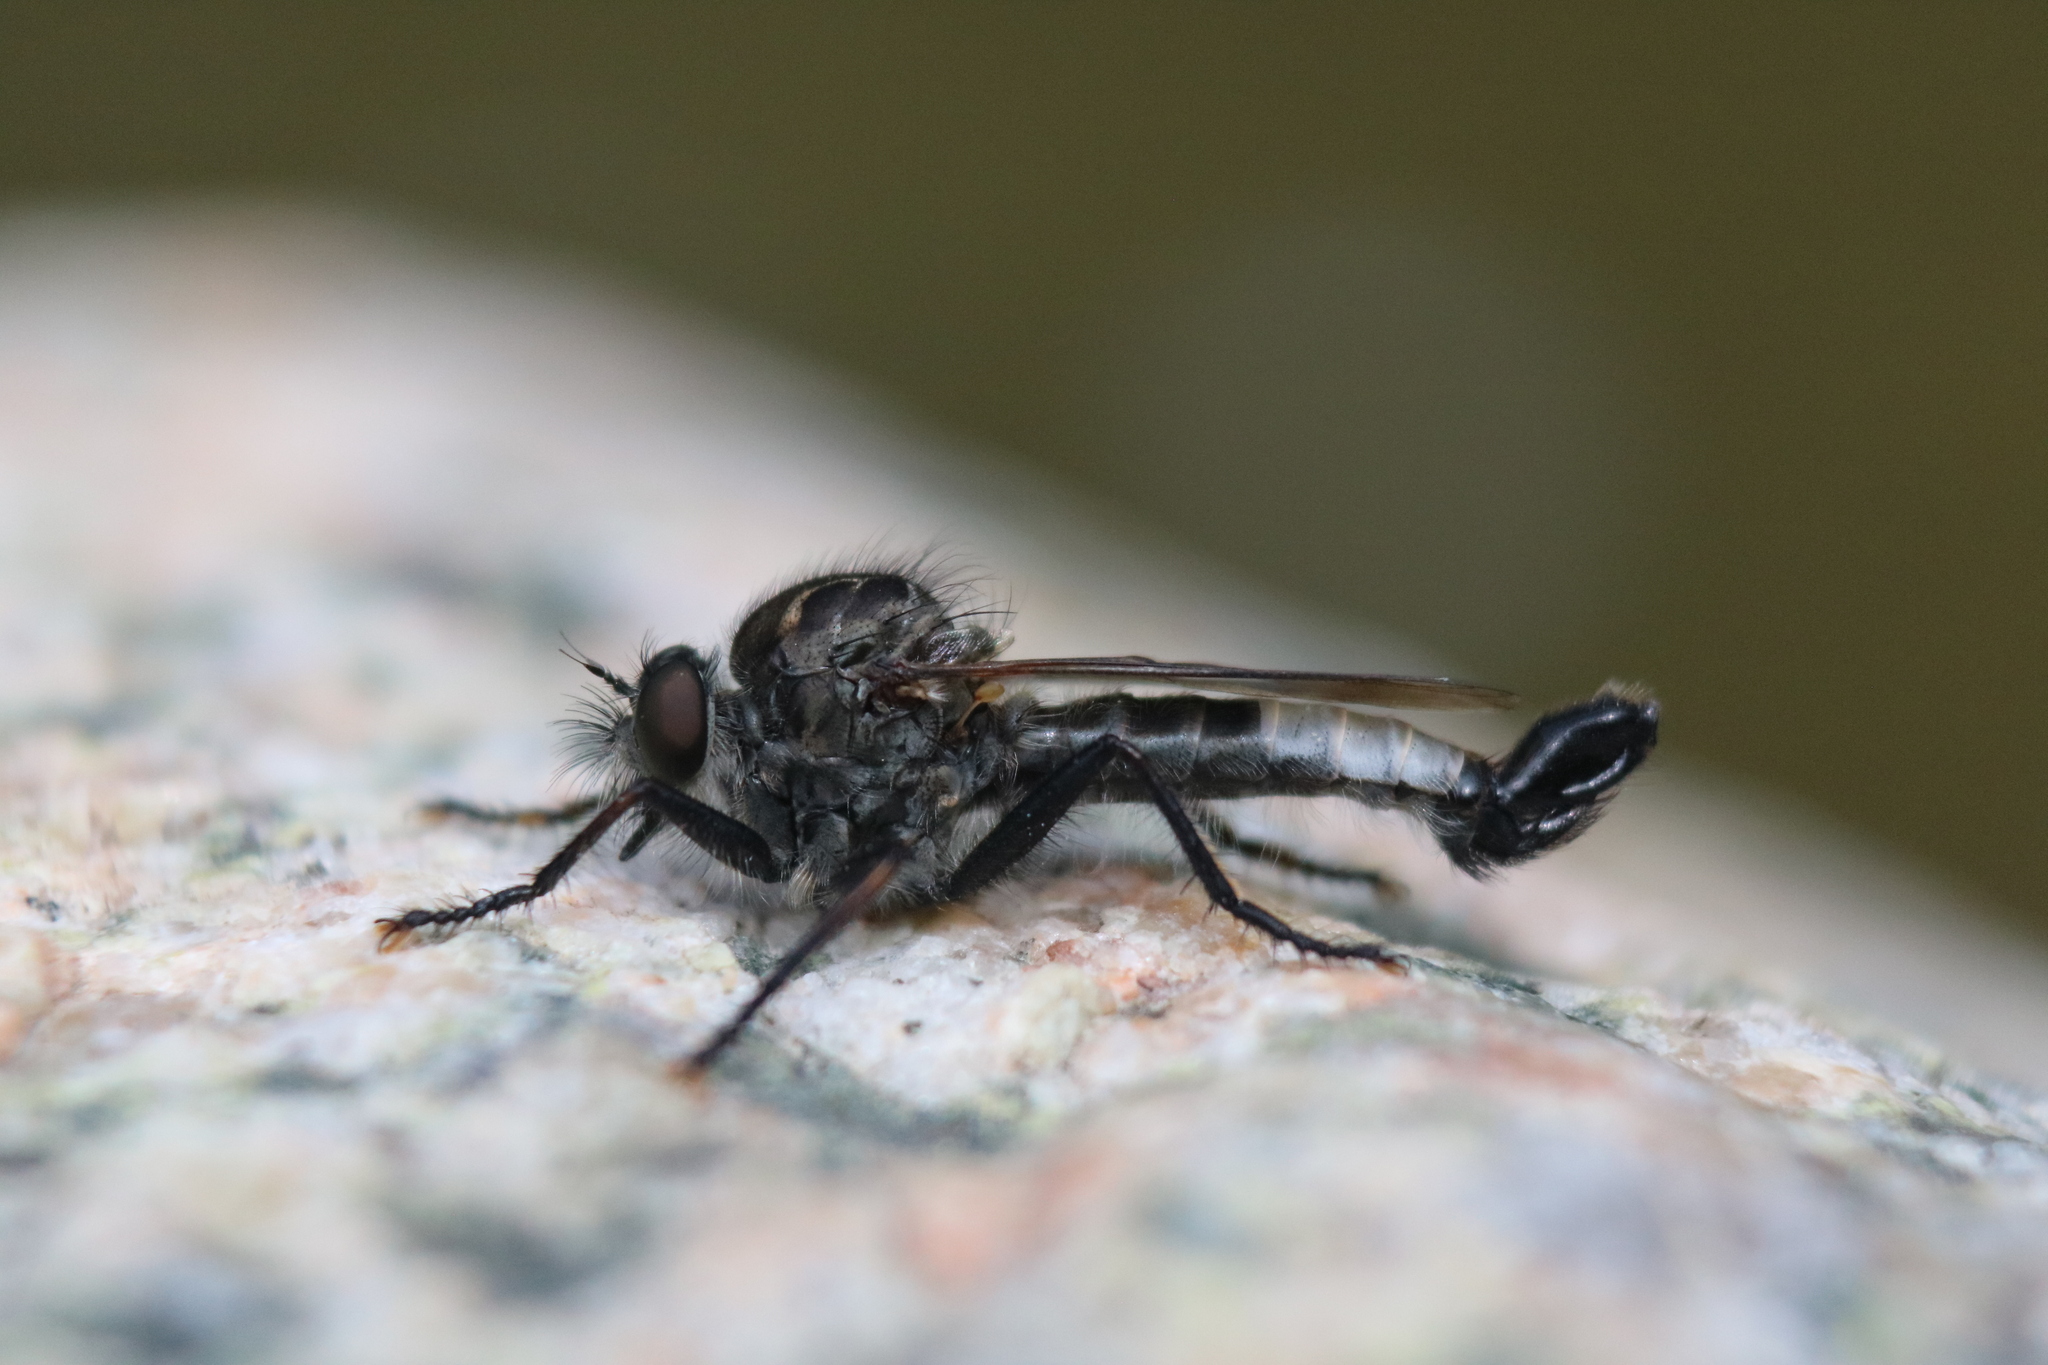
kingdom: Animalia
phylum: Arthropoda
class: Insecta
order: Diptera
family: Asilidae
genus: Efferia
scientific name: Efferia aestuans
